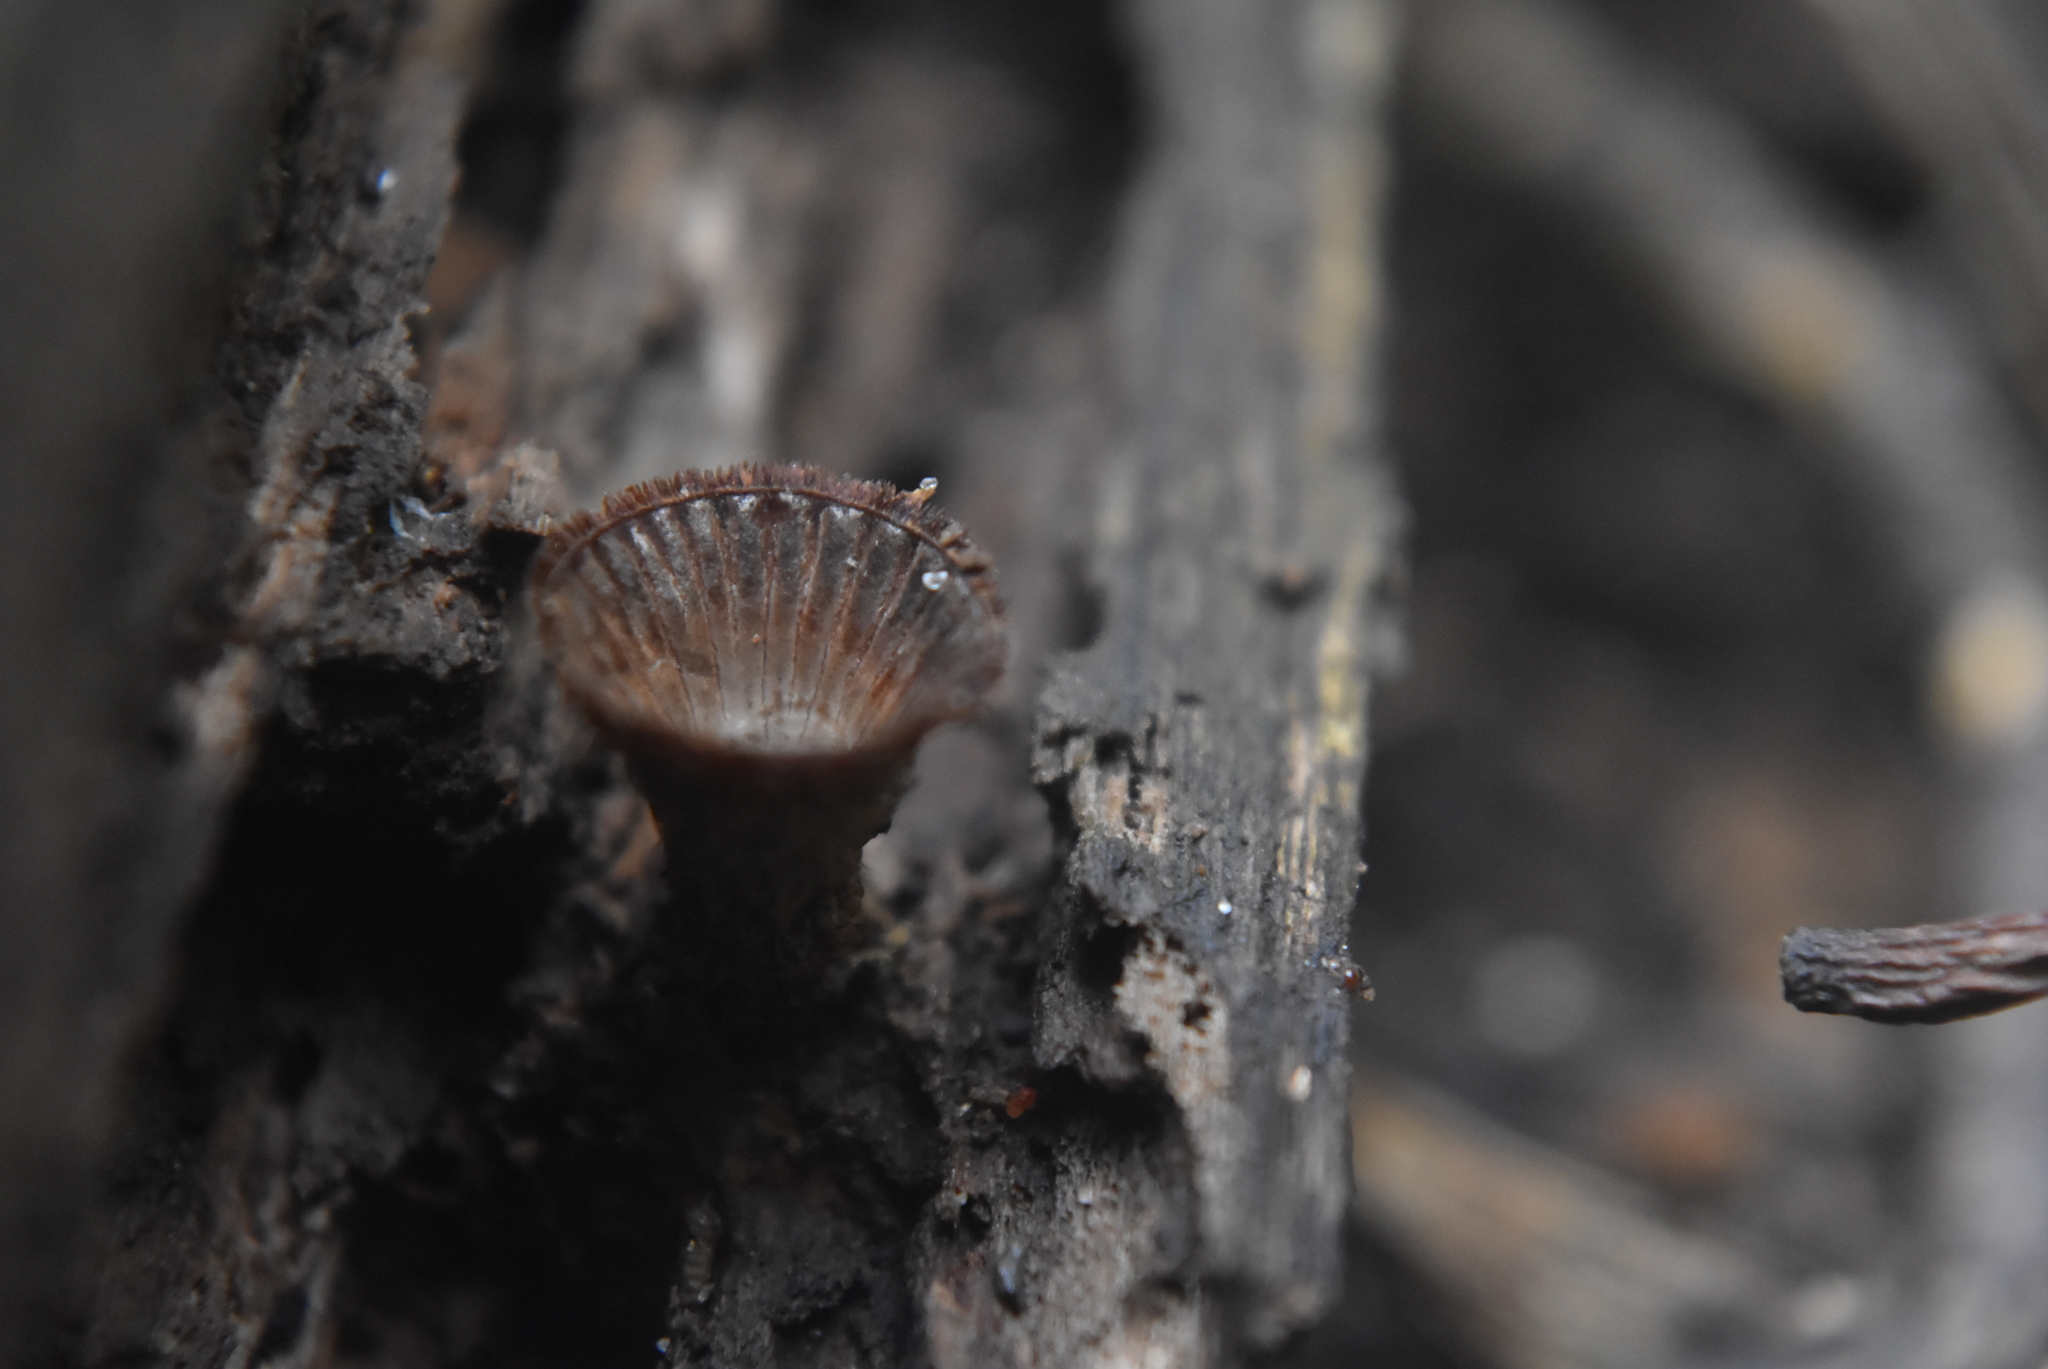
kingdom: Fungi
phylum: Basidiomycota
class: Agaricomycetes
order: Agaricales
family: Agaricaceae
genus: Cyathus
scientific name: Cyathus striatus
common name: Fluted bird's nest
